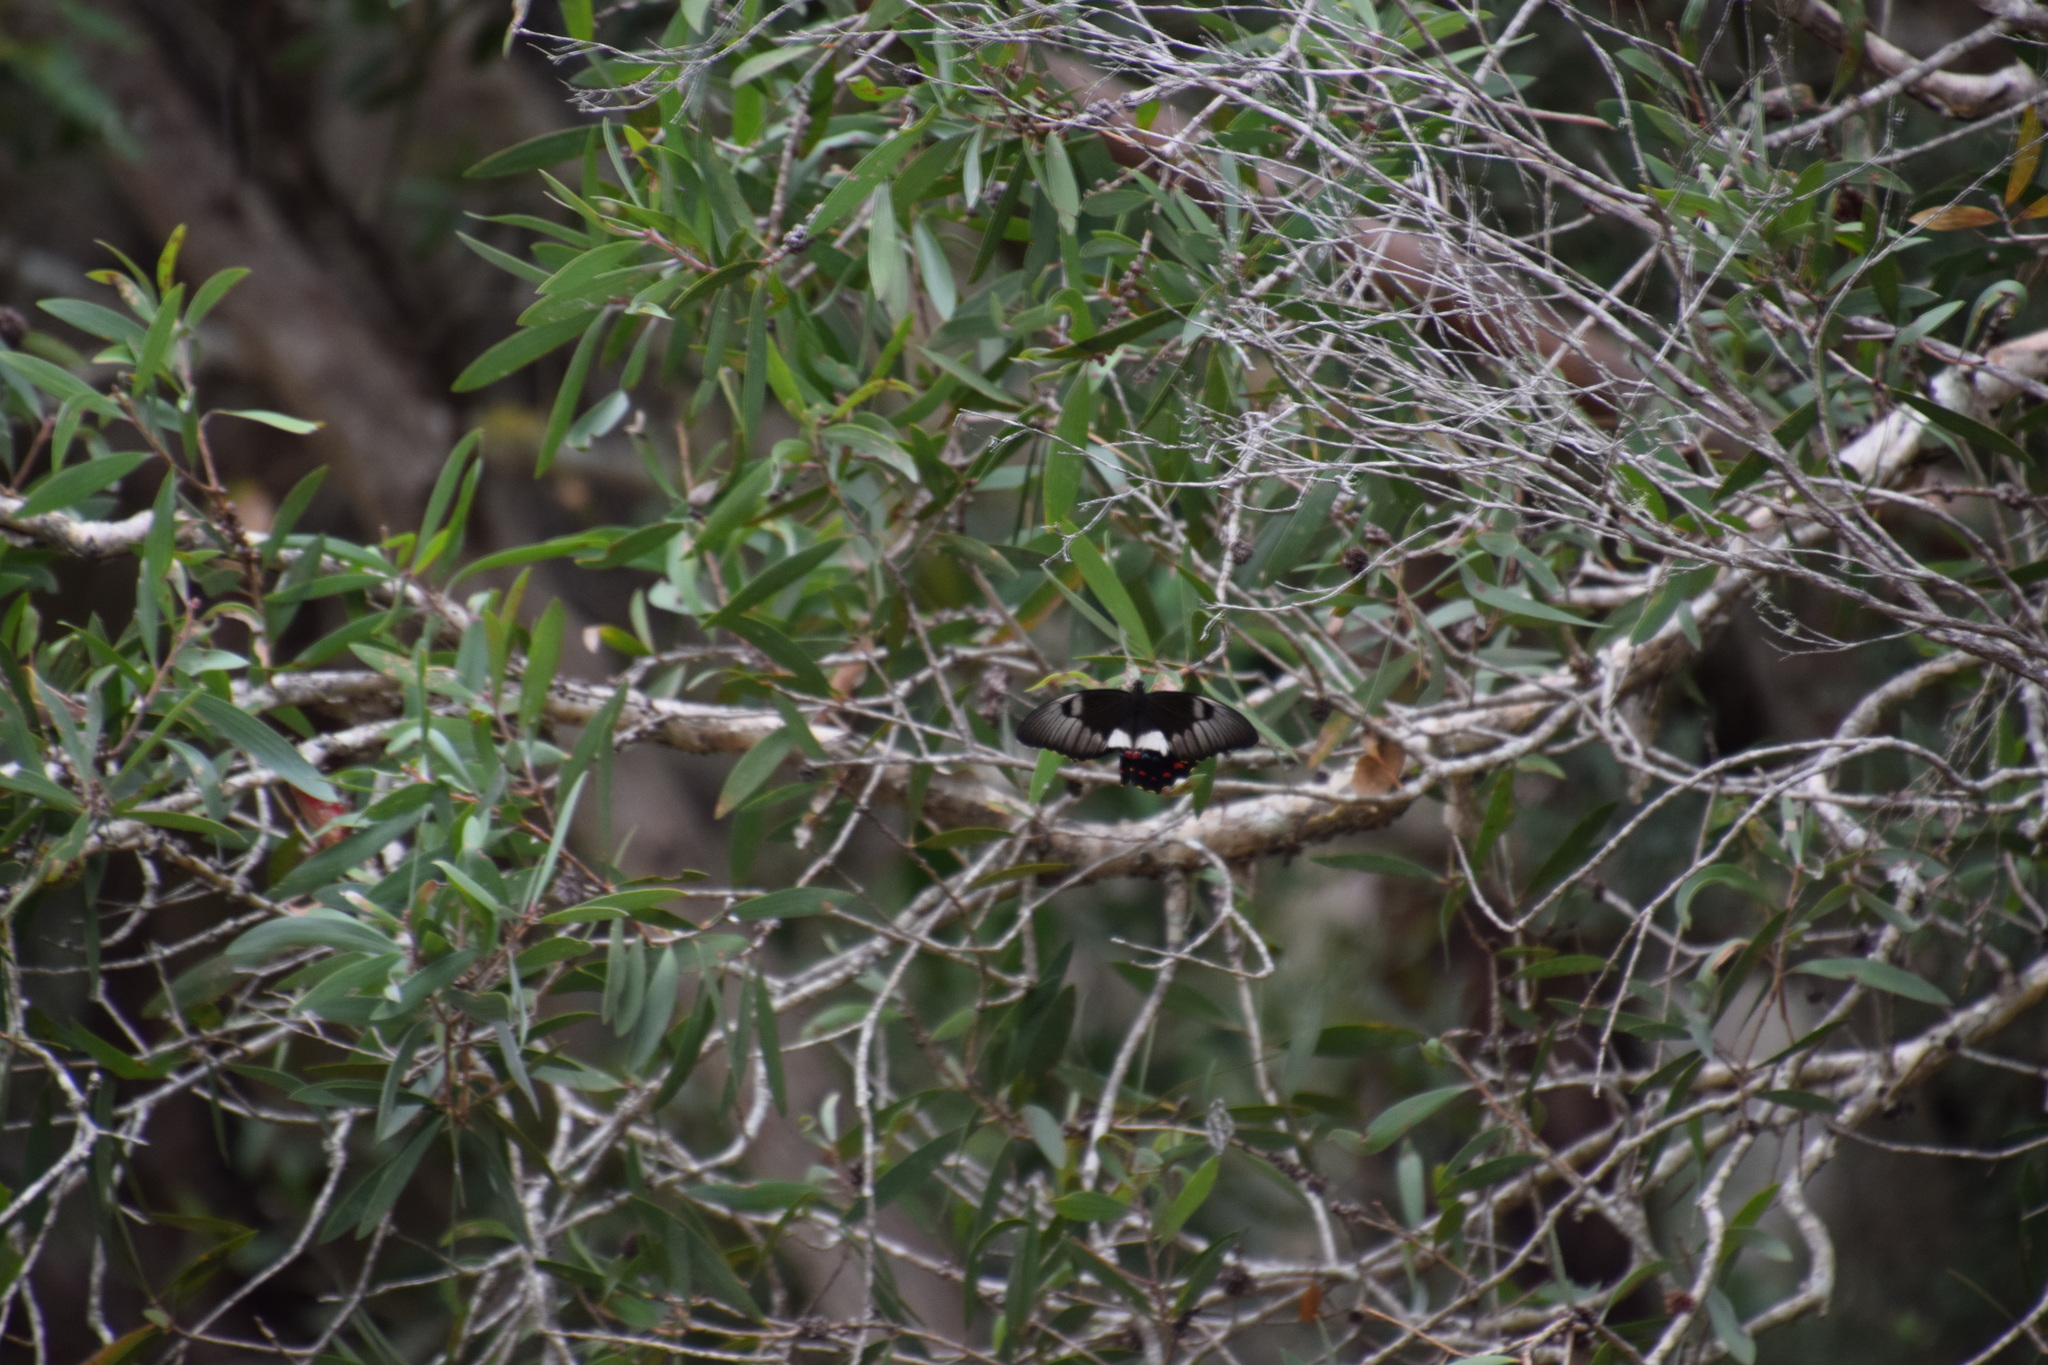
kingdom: Animalia
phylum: Arthropoda
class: Insecta
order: Lepidoptera
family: Papilionidae
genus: Papilio
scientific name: Papilio aegeus
